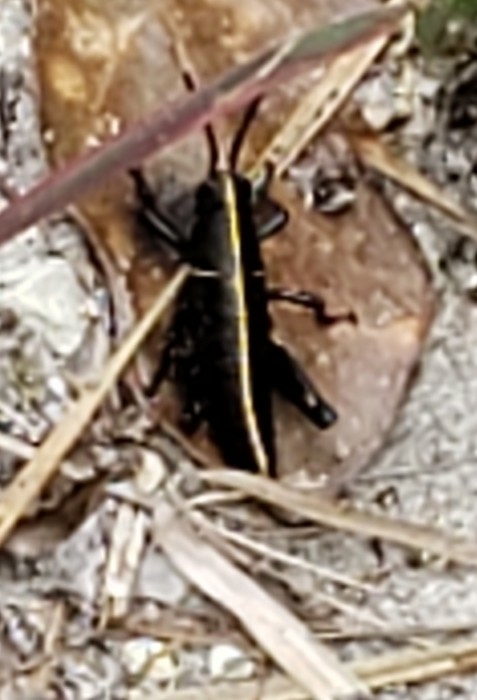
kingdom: Animalia
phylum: Arthropoda
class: Insecta
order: Orthoptera
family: Romaleidae
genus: Romalea
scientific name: Romalea microptera
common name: Eastern lubber grasshopper
